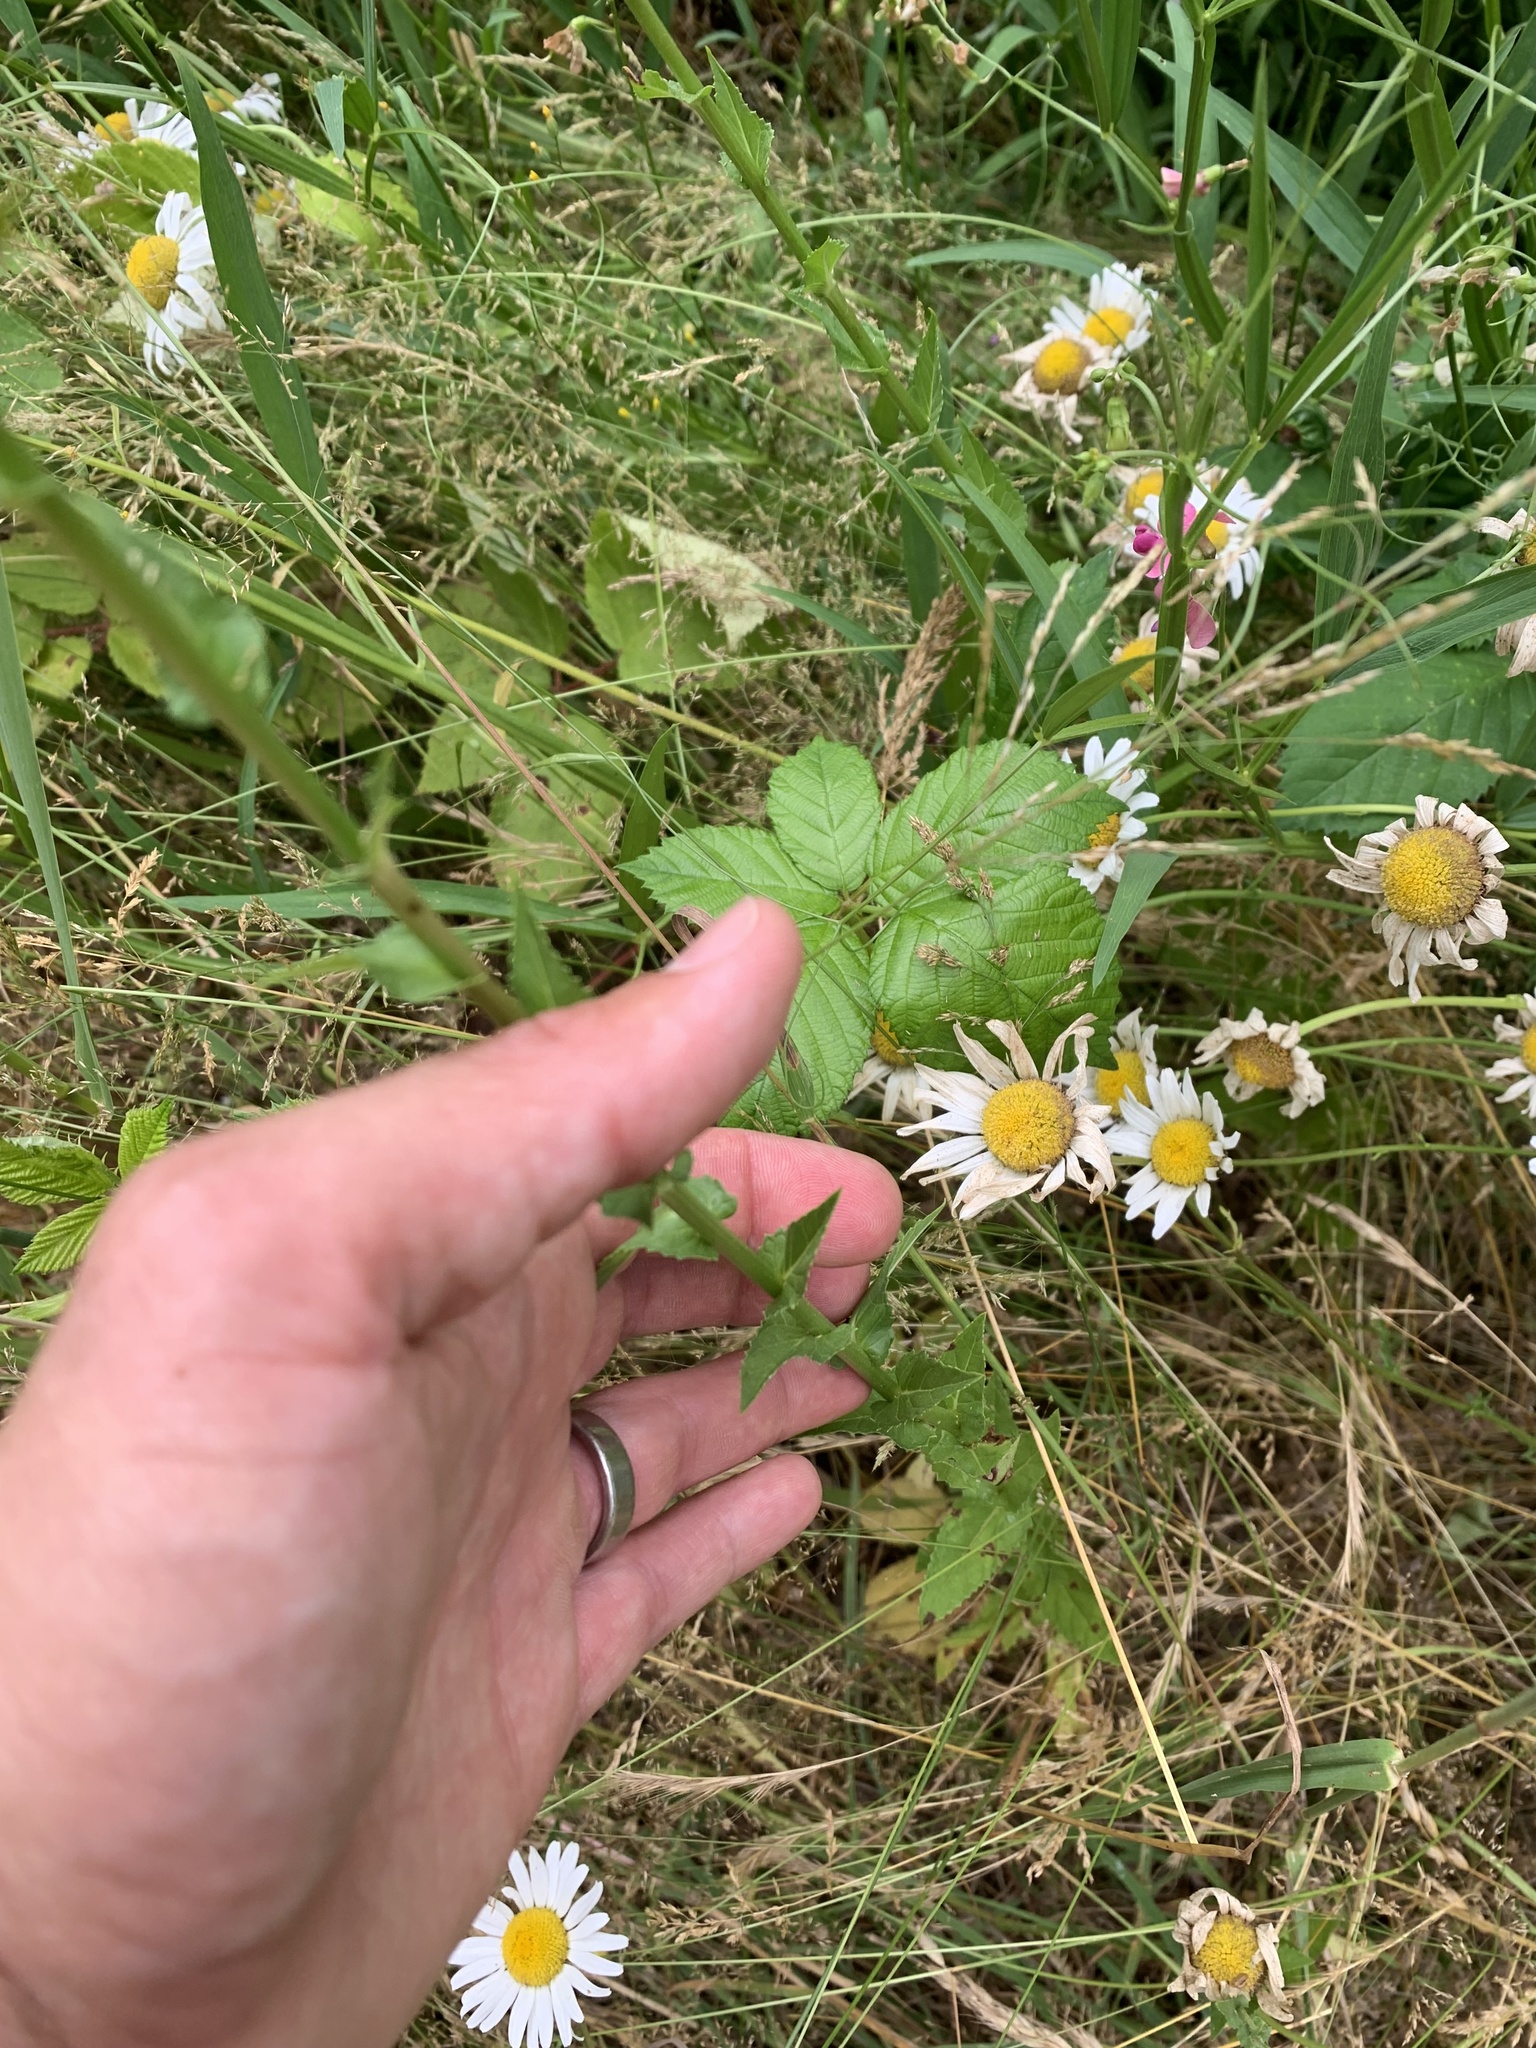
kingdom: Plantae
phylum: Tracheophyta
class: Magnoliopsida
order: Lamiales
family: Scrophulariaceae
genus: Verbascum
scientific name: Verbascum blattaria
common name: Moth mullein
